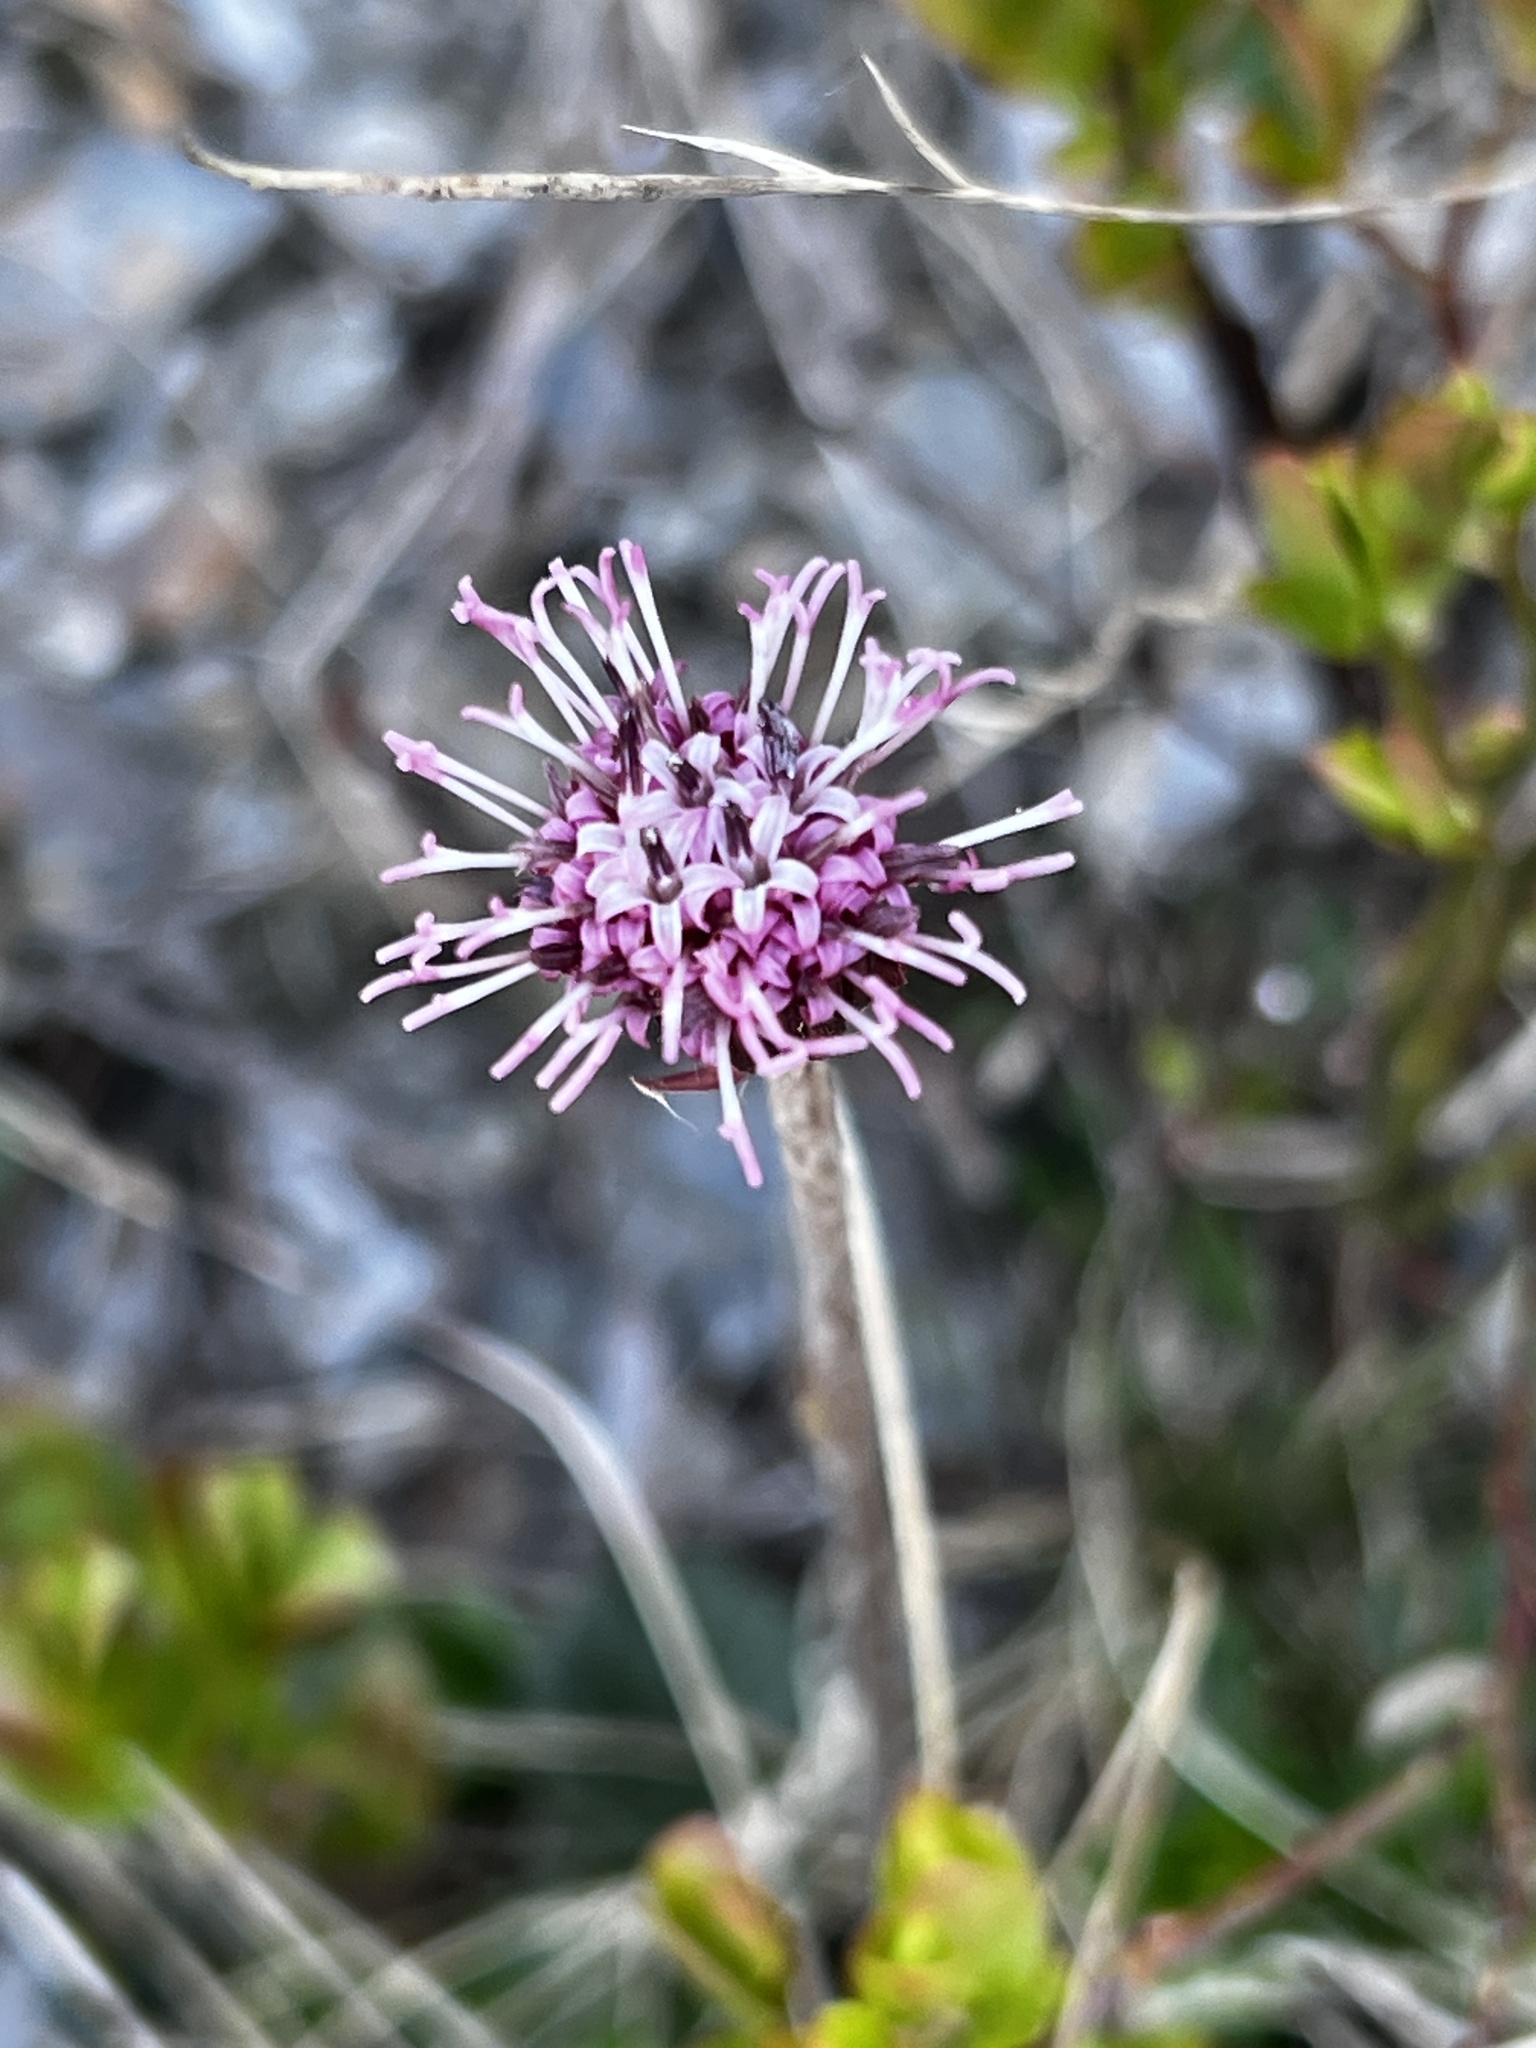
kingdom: Plantae
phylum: Tracheophyta
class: Magnoliopsida
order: Asterales
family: Asteraceae
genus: Homogyne
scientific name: Homogyne alpina
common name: Purple colt's-foot
